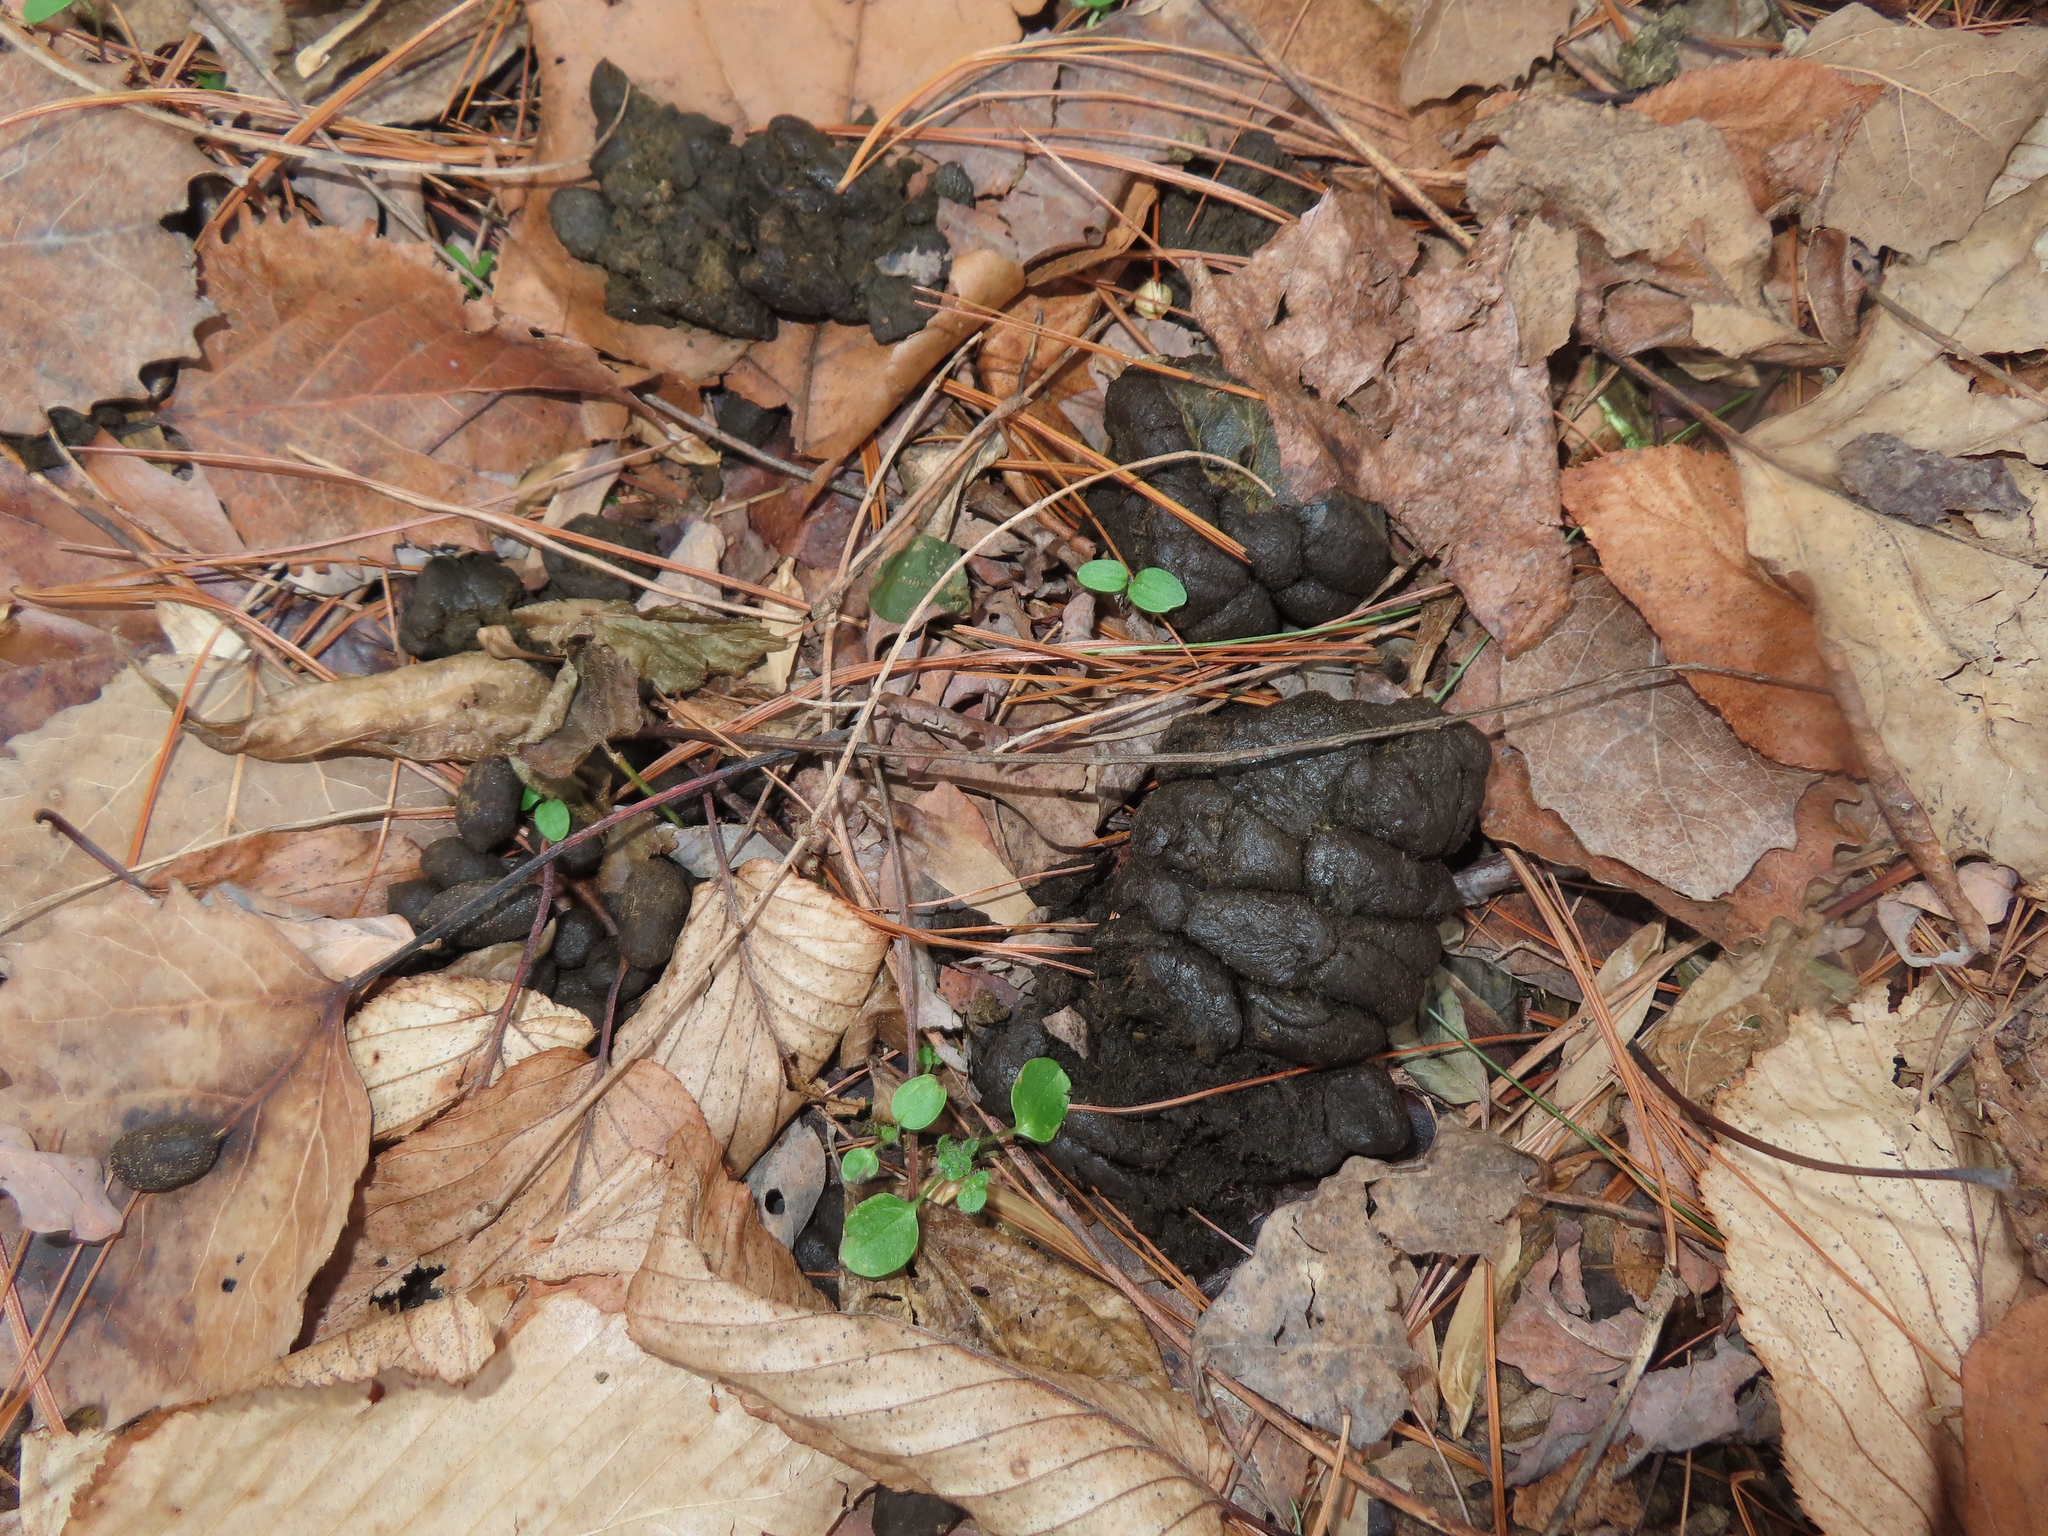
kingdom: Animalia
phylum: Chordata
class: Mammalia
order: Artiodactyla
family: Cervidae
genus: Odocoileus
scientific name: Odocoileus virginianus
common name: White-tailed deer
